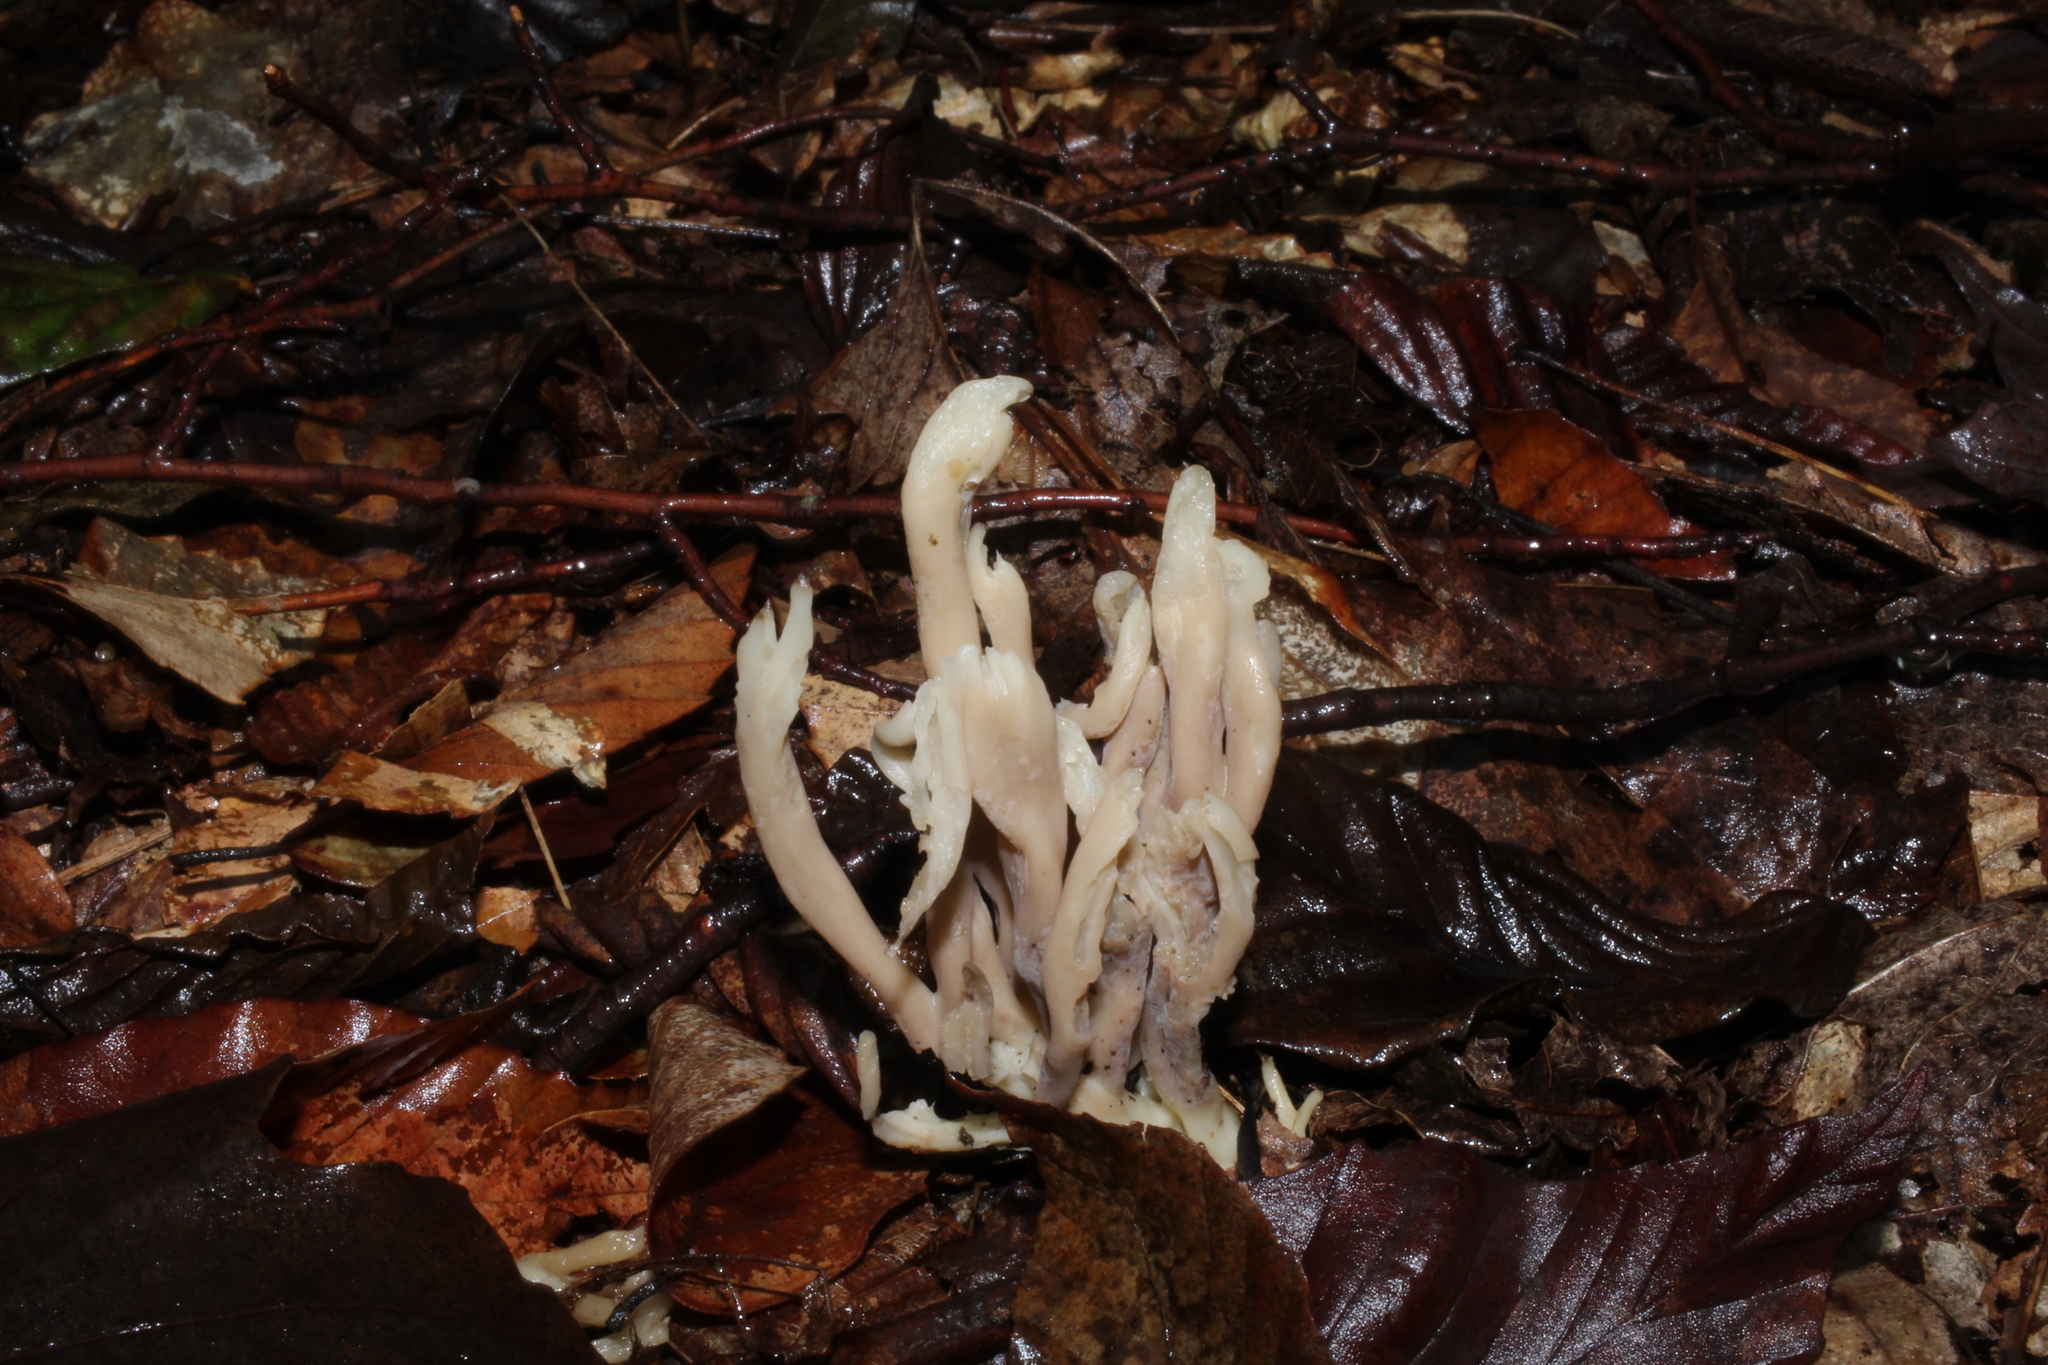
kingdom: Fungi
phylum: Basidiomycota
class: Agaricomycetes
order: Cantharellales
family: Hydnaceae
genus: Clavulina
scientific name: Clavulina rugosa
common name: Wrinkled club
